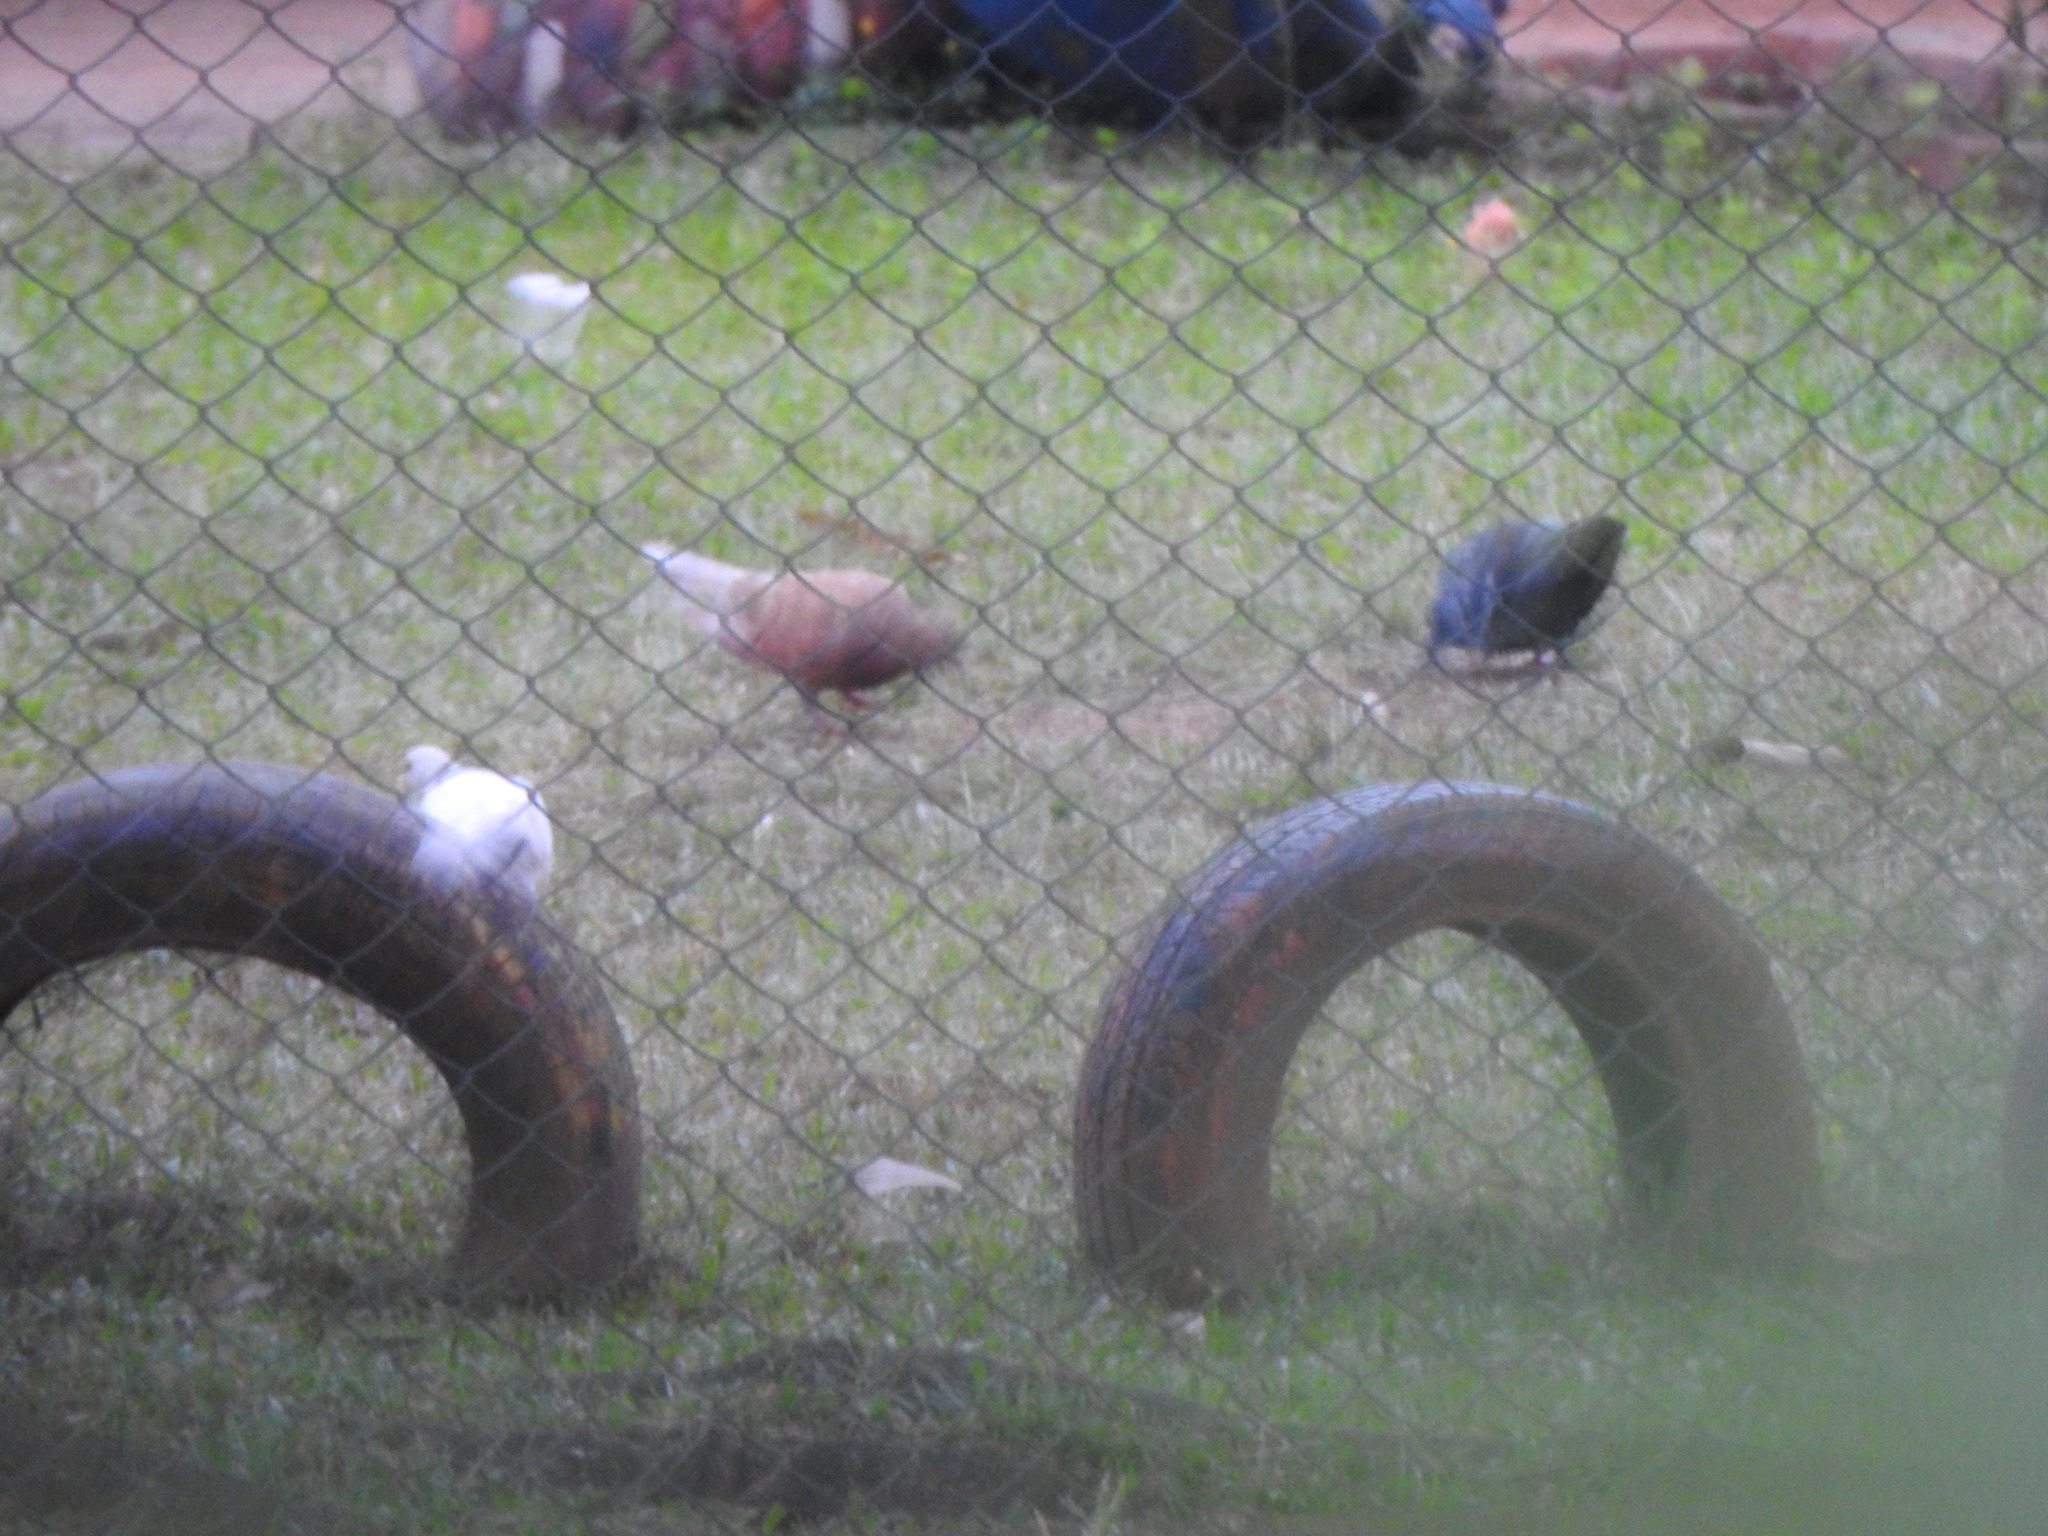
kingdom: Animalia
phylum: Chordata
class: Aves
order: Columbiformes
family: Columbidae
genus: Columba
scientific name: Columba livia
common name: Rock pigeon
